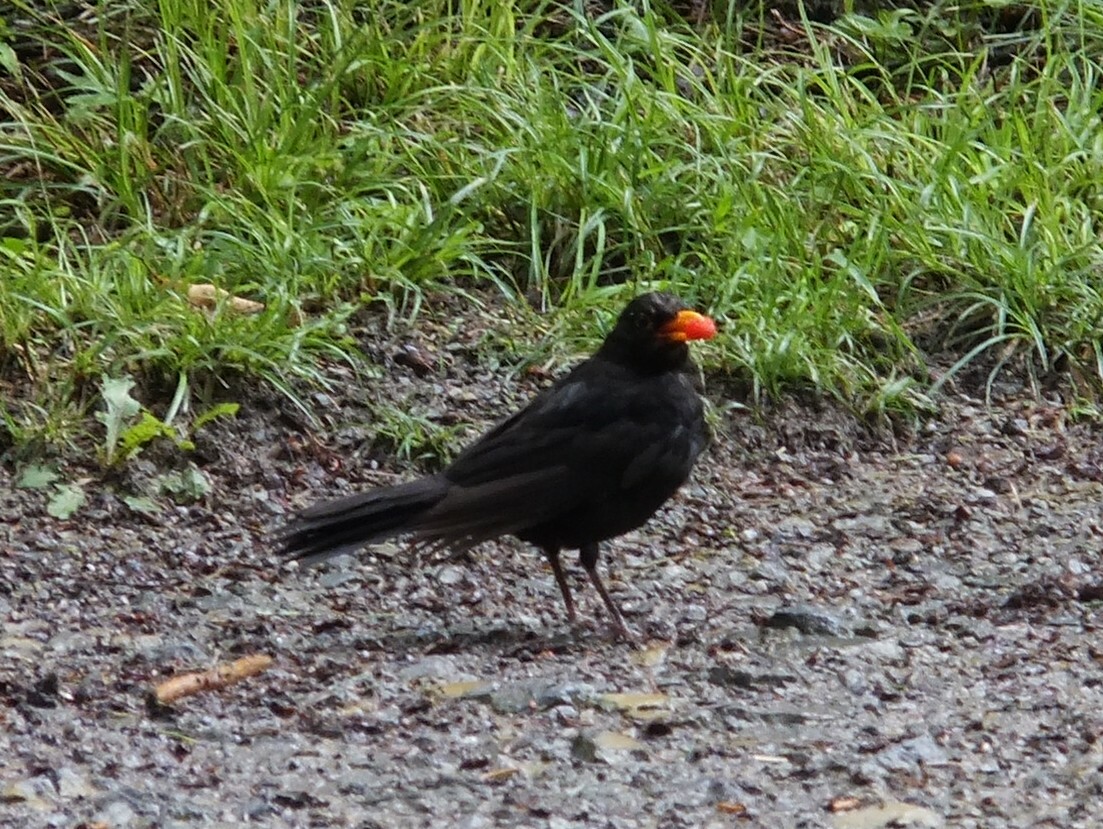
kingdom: Animalia
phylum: Chordata
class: Aves
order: Passeriformes
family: Turdidae
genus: Turdus
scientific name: Turdus merula
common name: Common blackbird
